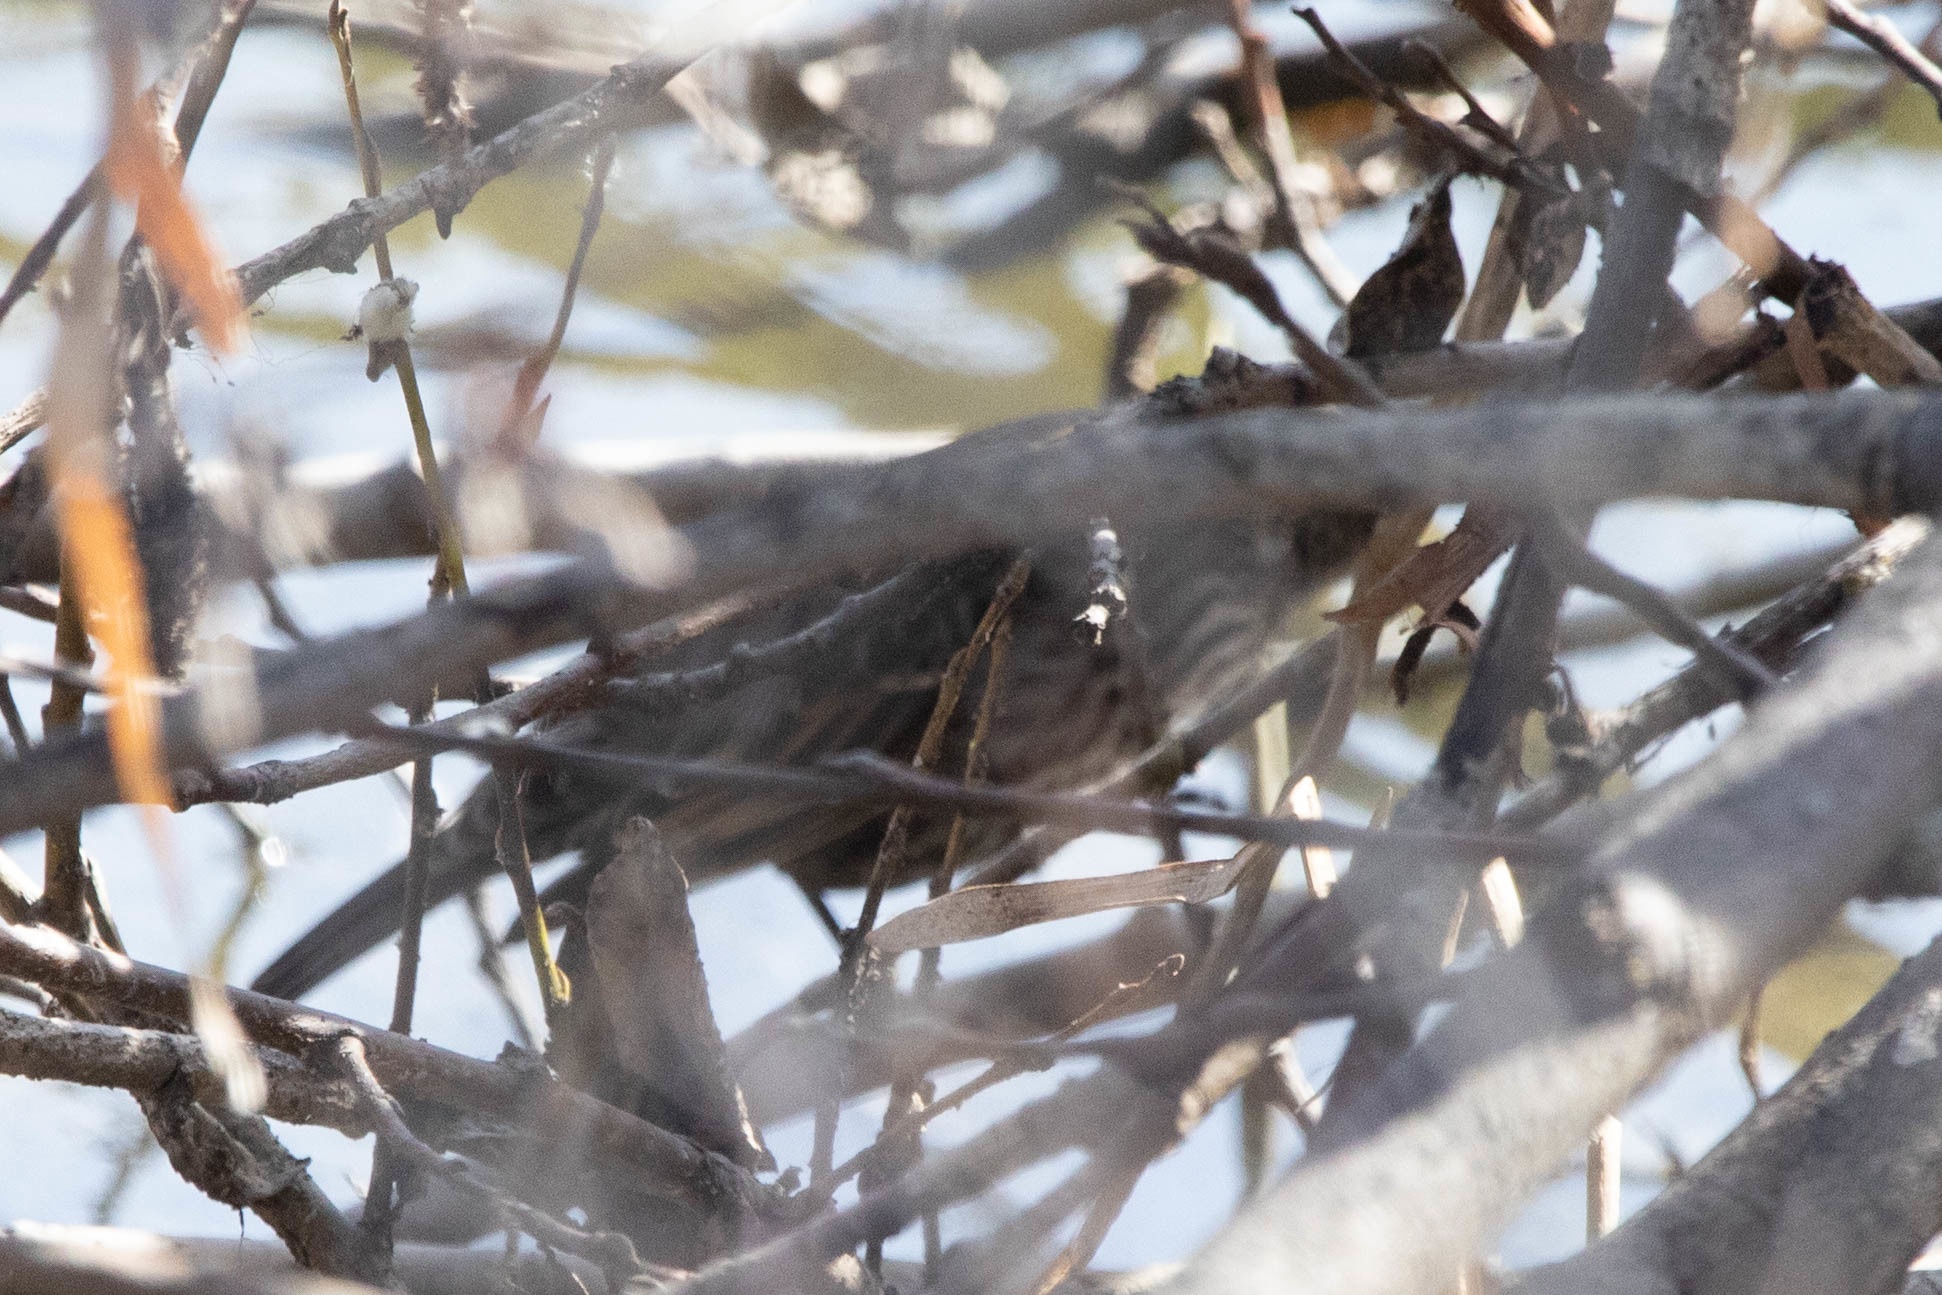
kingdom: Animalia
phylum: Chordata
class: Aves
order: Passeriformes
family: Icteridae
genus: Agelaius
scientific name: Agelaius phoeniceus
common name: Red-winged blackbird
